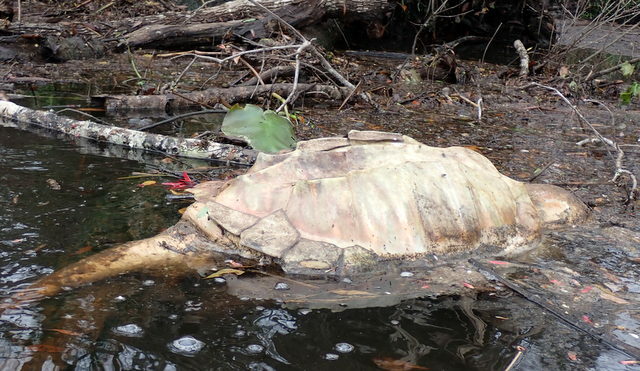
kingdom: Animalia
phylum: Chordata
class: Testudines
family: Chelydridae
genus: Macrochelys
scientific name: Macrochelys temminckii
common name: Alligator snapping turtle
